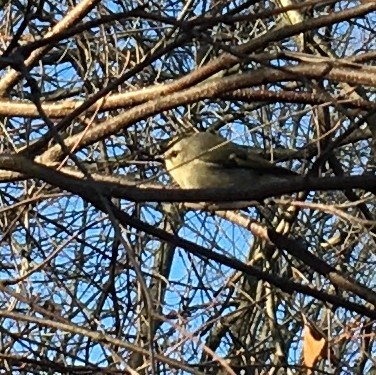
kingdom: Animalia
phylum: Chordata
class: Aves
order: Passeriformes
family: Regulidae
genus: Regulus
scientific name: Regulus satrapa
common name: Golden-crowned kinglet
